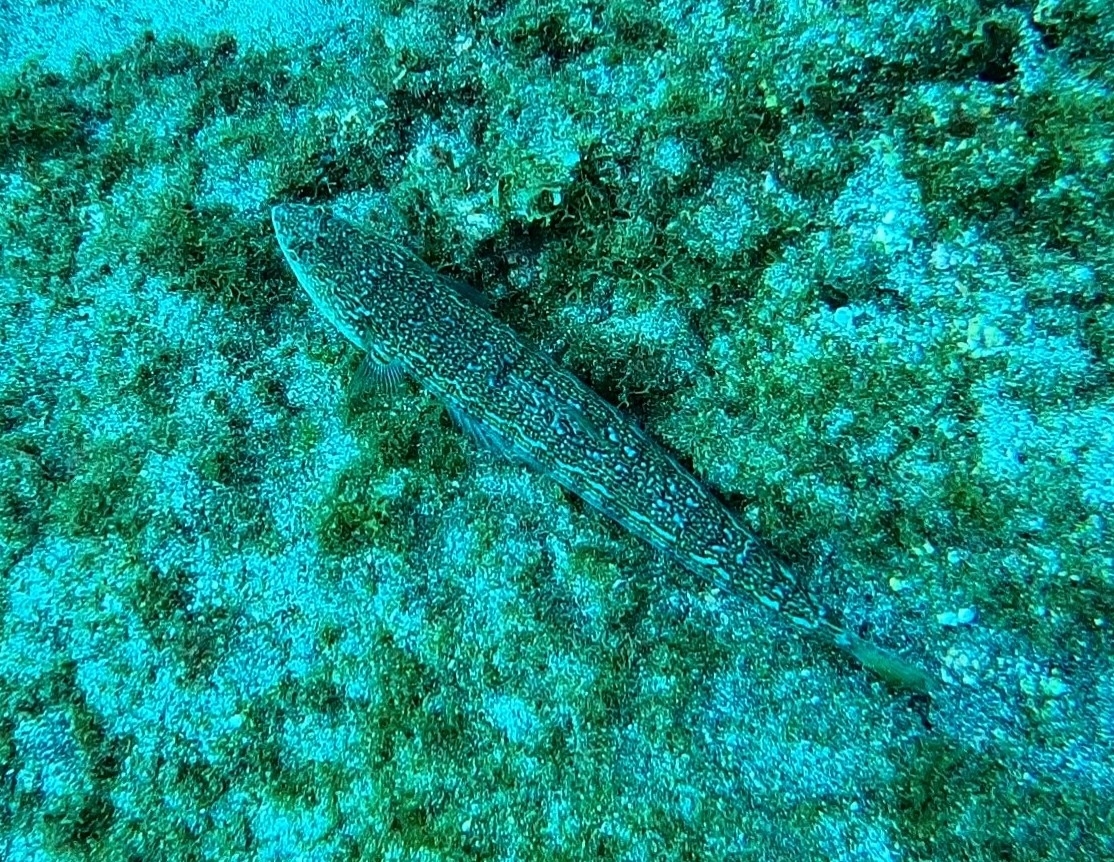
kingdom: Animalia
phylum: Chordata
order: Aulopiformes
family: Synodontidae
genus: Synodus
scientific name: Synodus saurus
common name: Atlantic lizardfish
